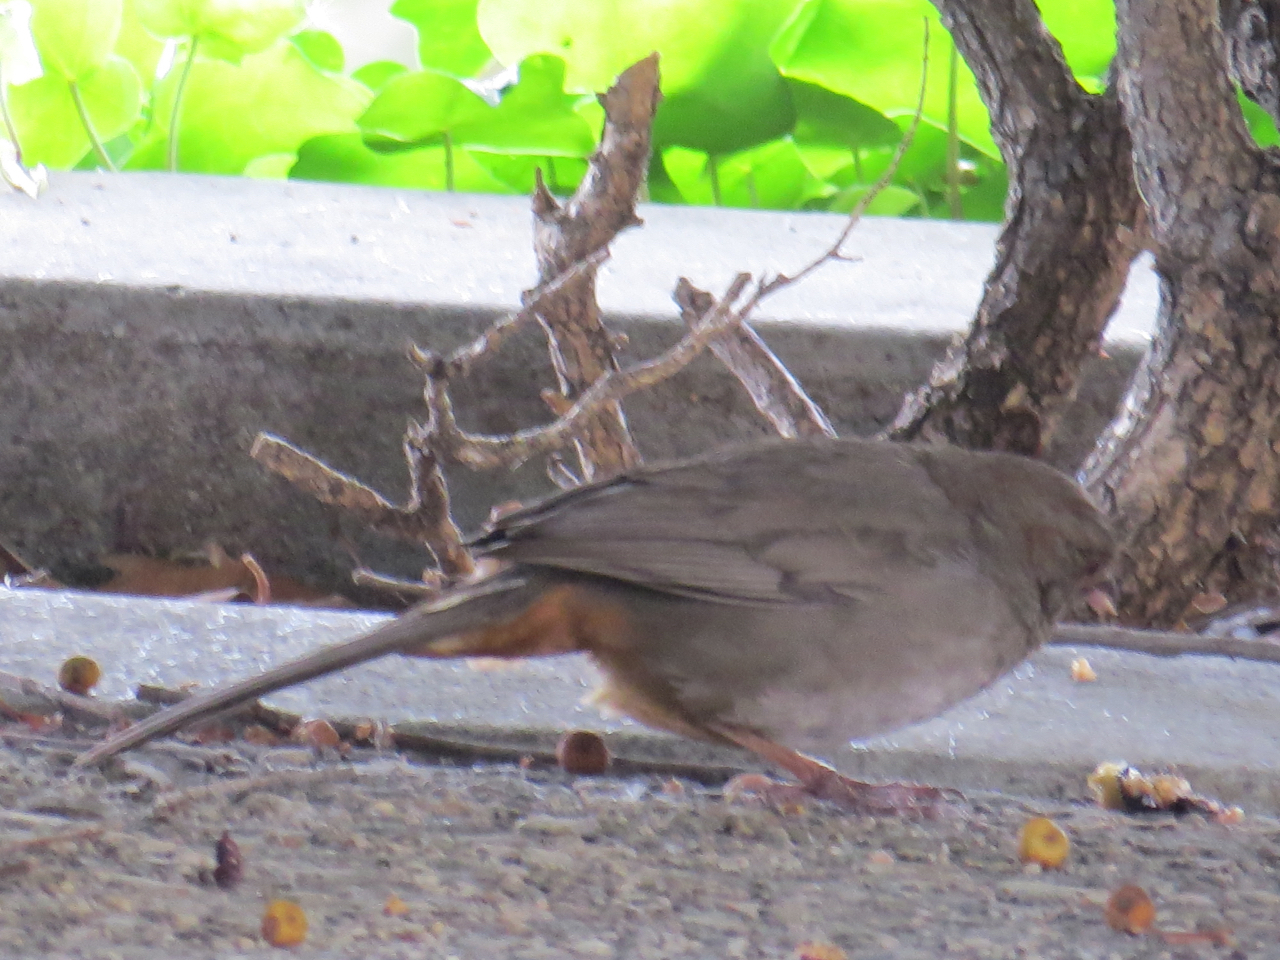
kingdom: Animalia
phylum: Chordata
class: Aves
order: Passeriformes
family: Passerellidae
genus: Melozone
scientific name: Melozone crissalis
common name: California towhee
